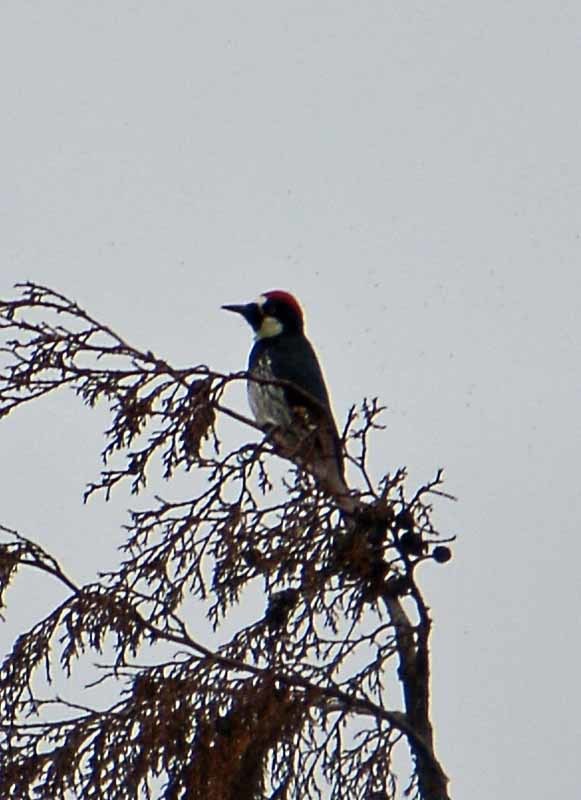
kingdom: Animalia
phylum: Chordata
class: Aves
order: Piciformes
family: Picidae
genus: Melanerpes
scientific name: Melanerpes formicivorus
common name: Acorn woodpecker
